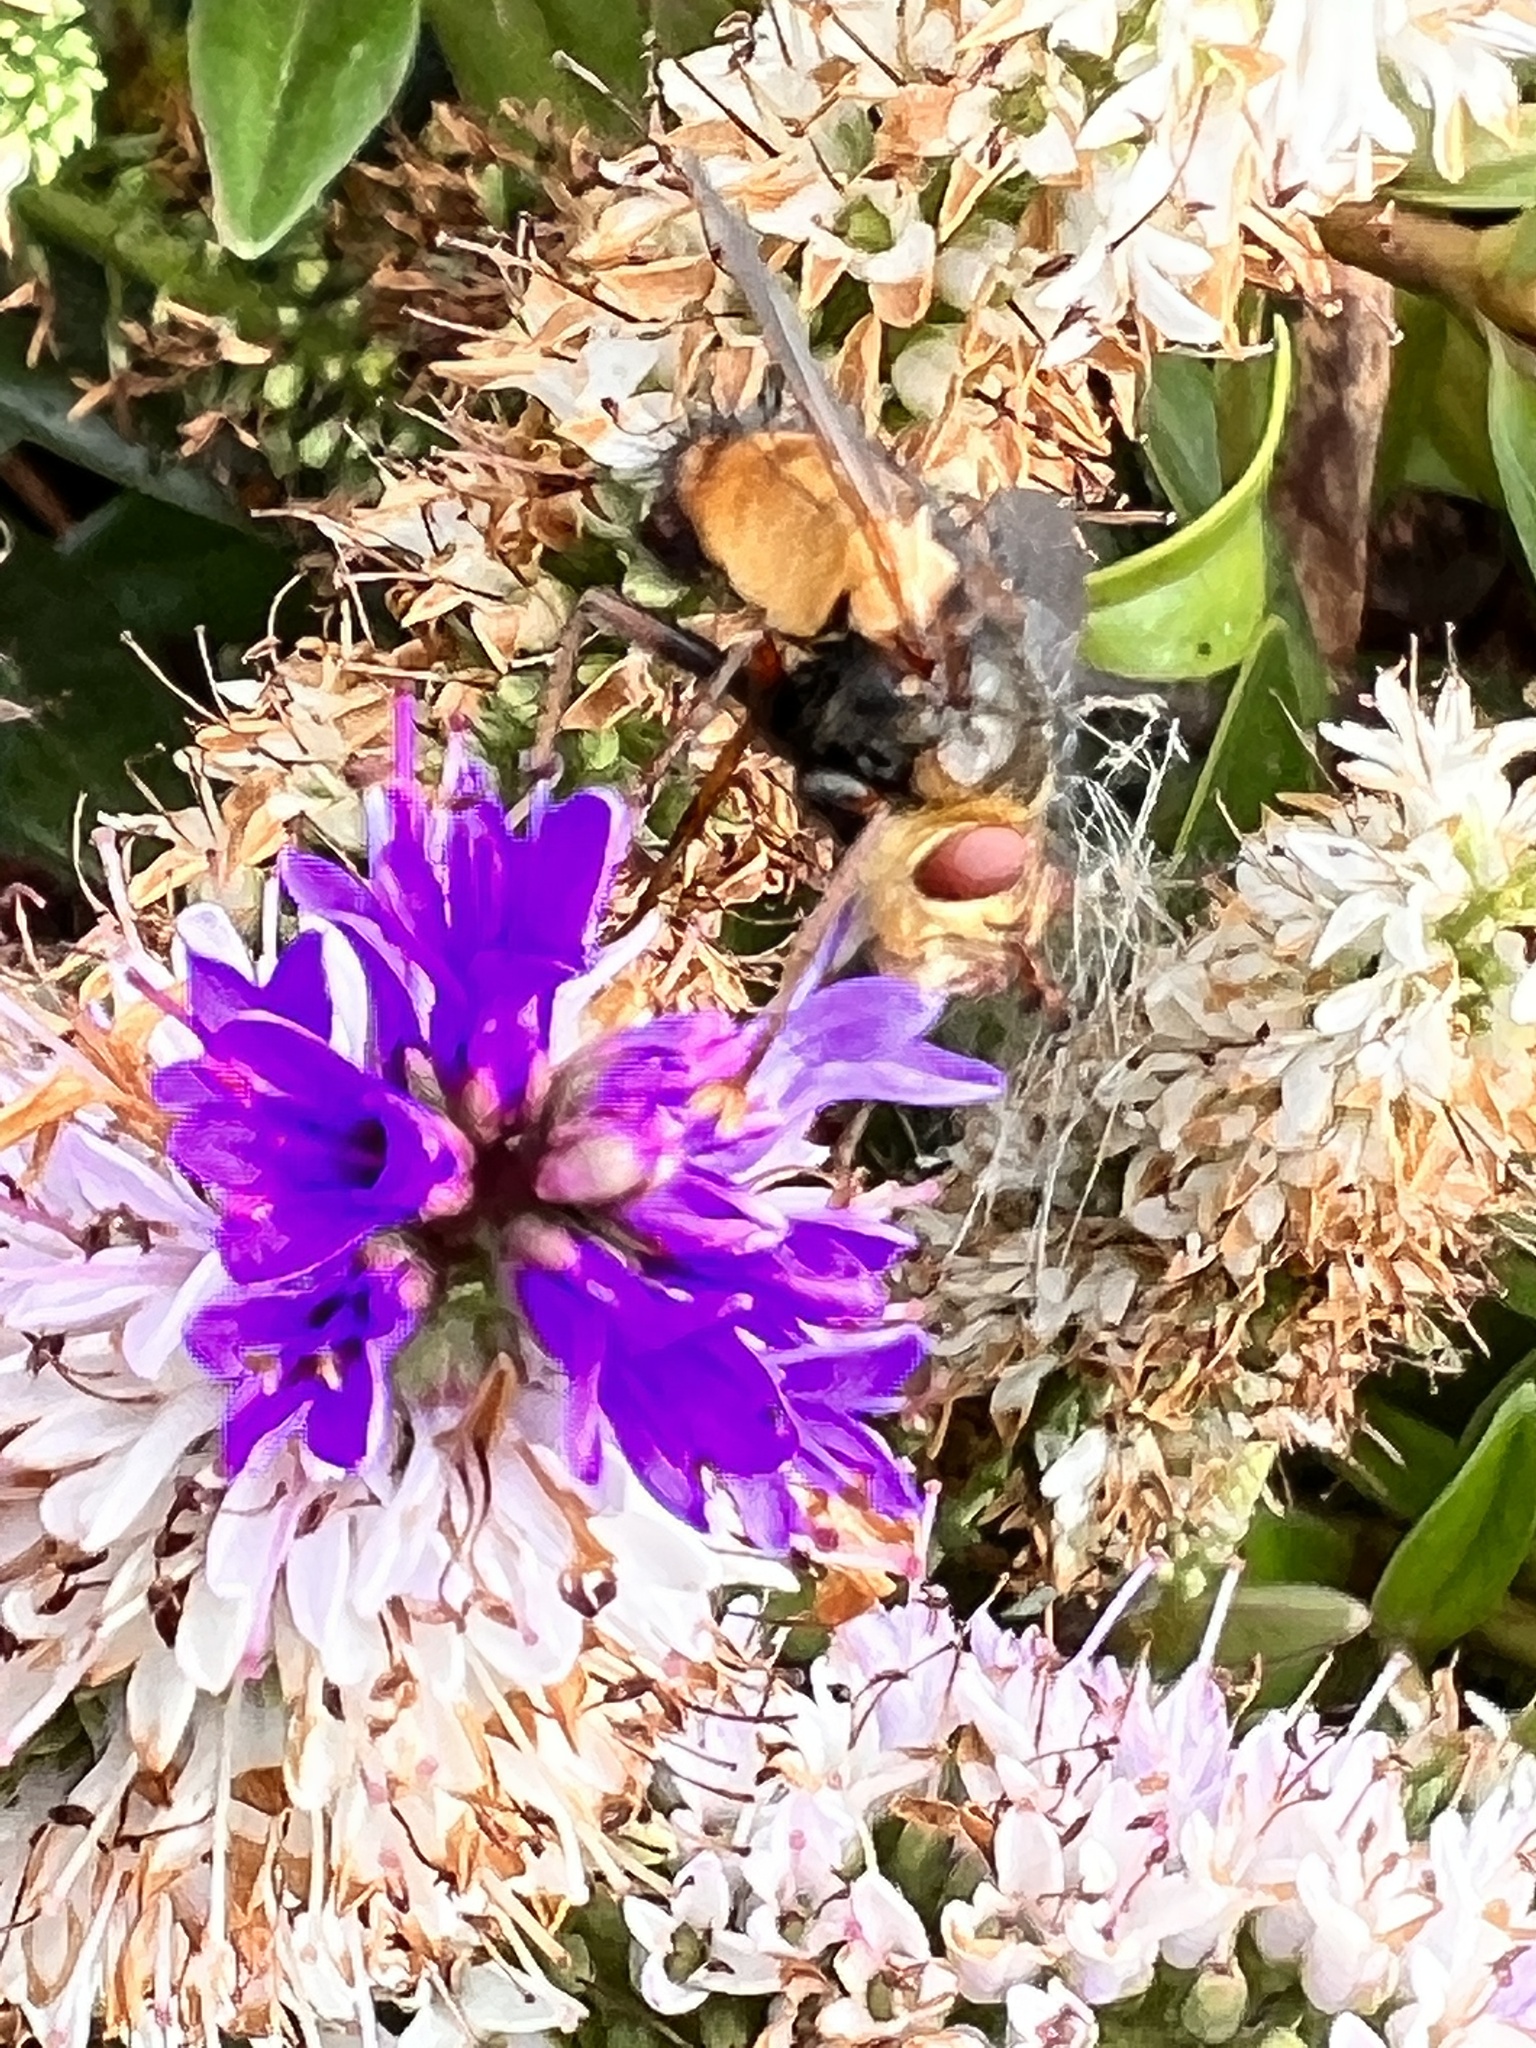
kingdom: Animalia
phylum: Arthropoda
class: Insecta
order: Diptera
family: Tachinidae
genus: Tachina
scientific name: Tachina fera
